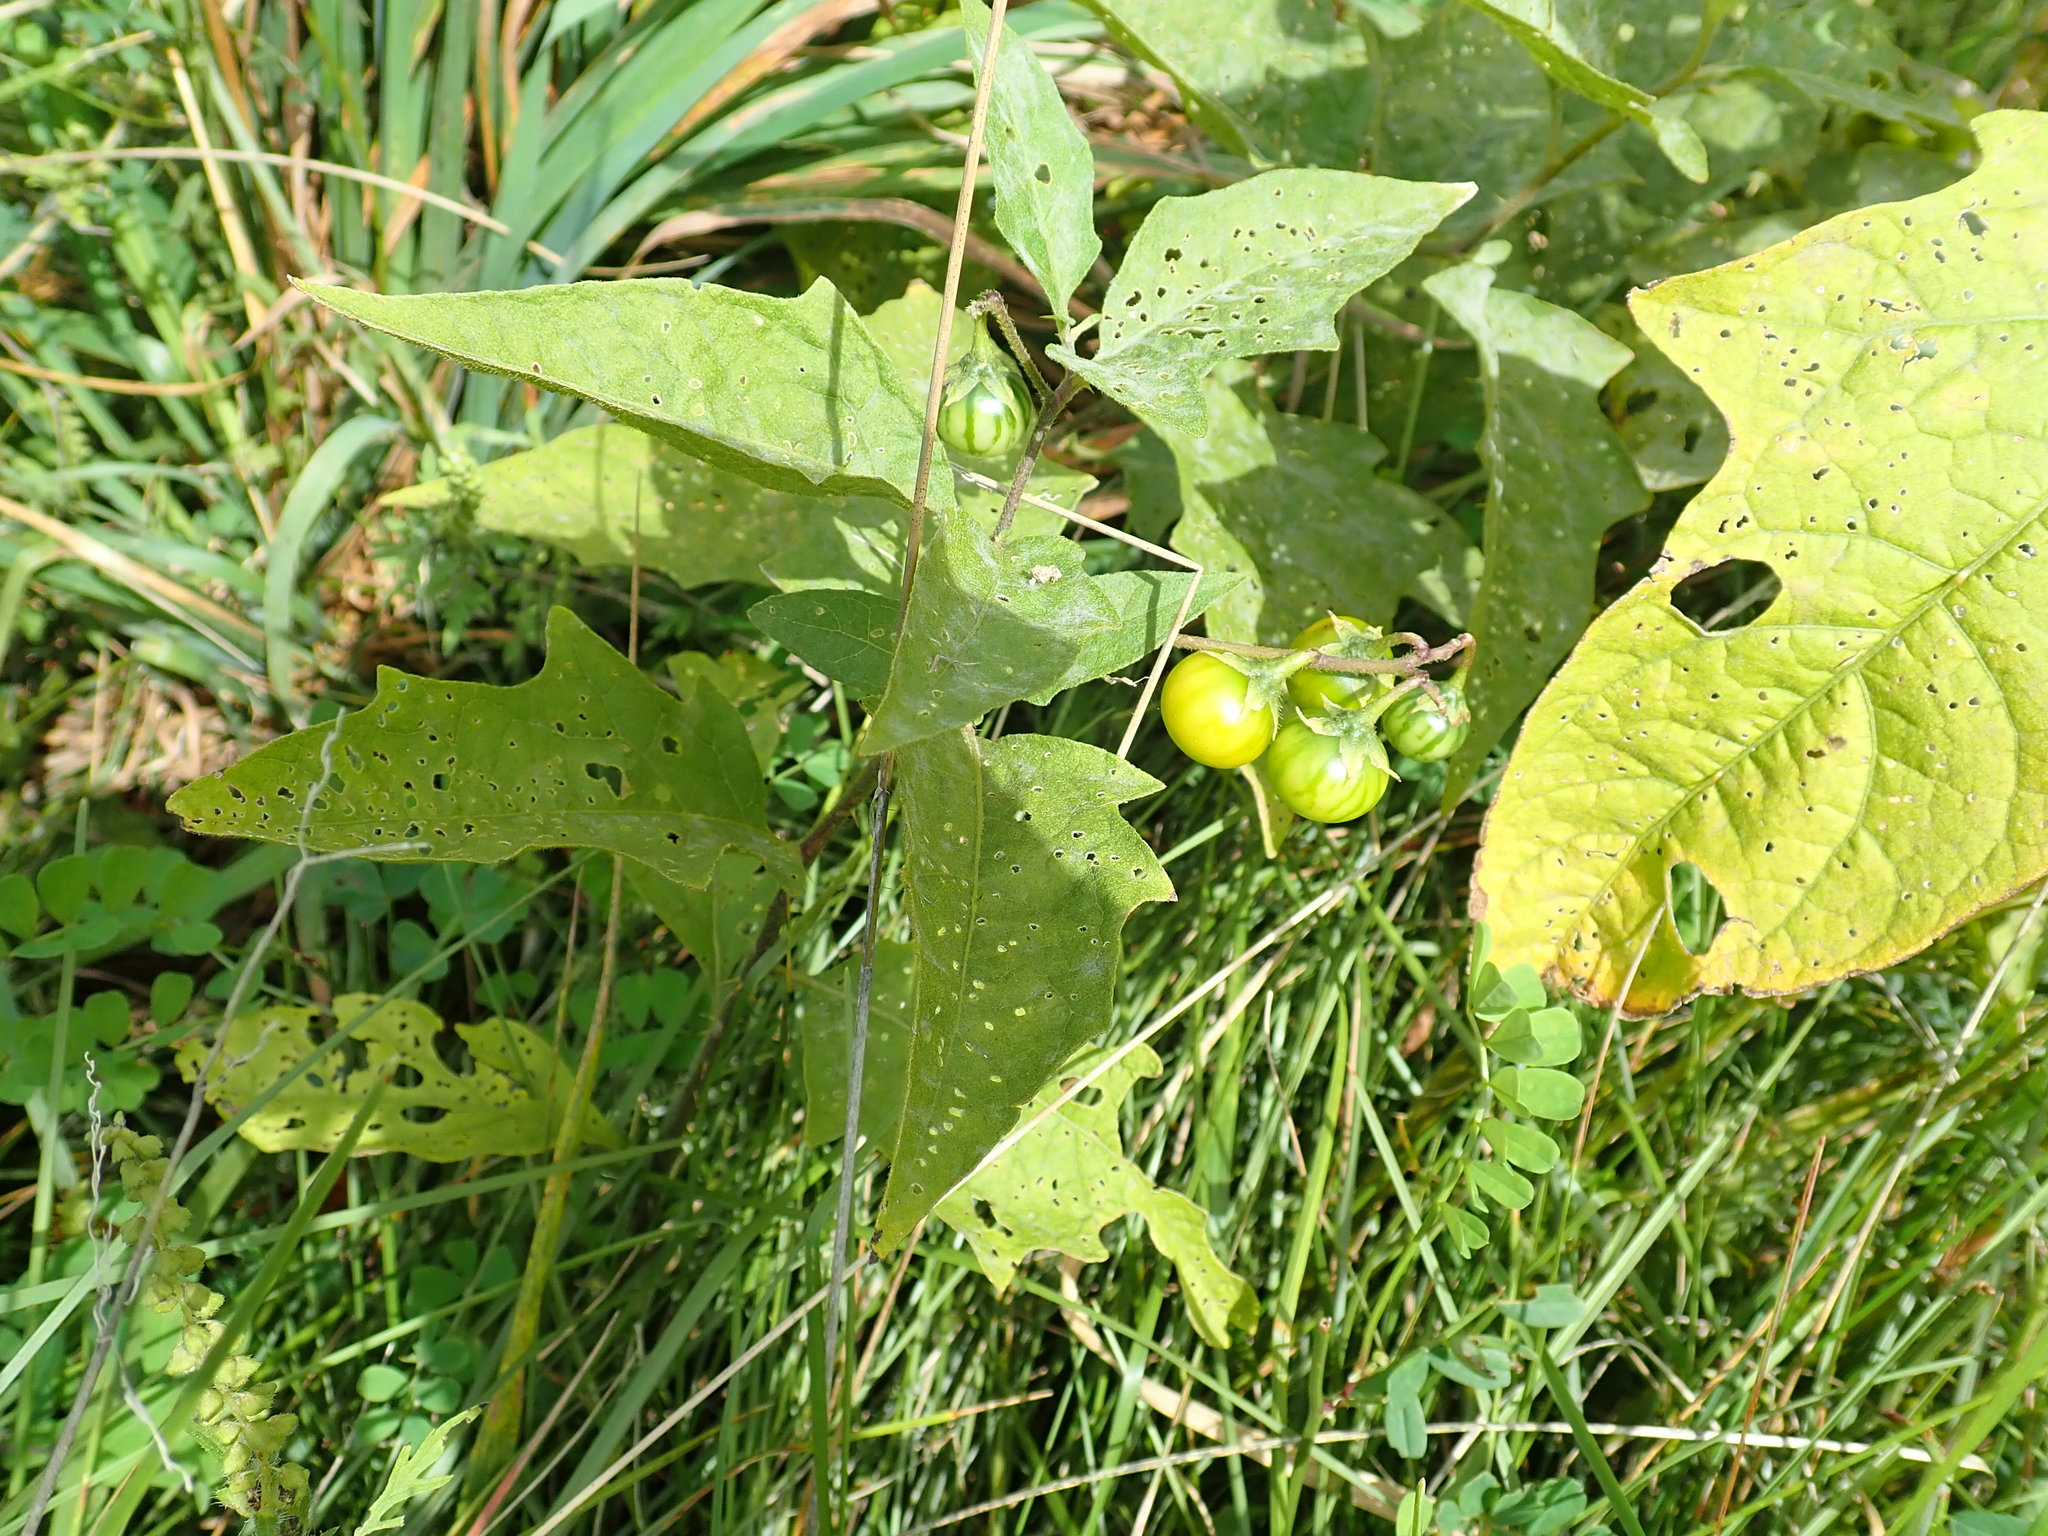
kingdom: Plantae
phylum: Tracheophyta
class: Magnoliopsida
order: Solanales
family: Solanaceae
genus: Solanum
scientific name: Solanum carolinense
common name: Horse-nettle
